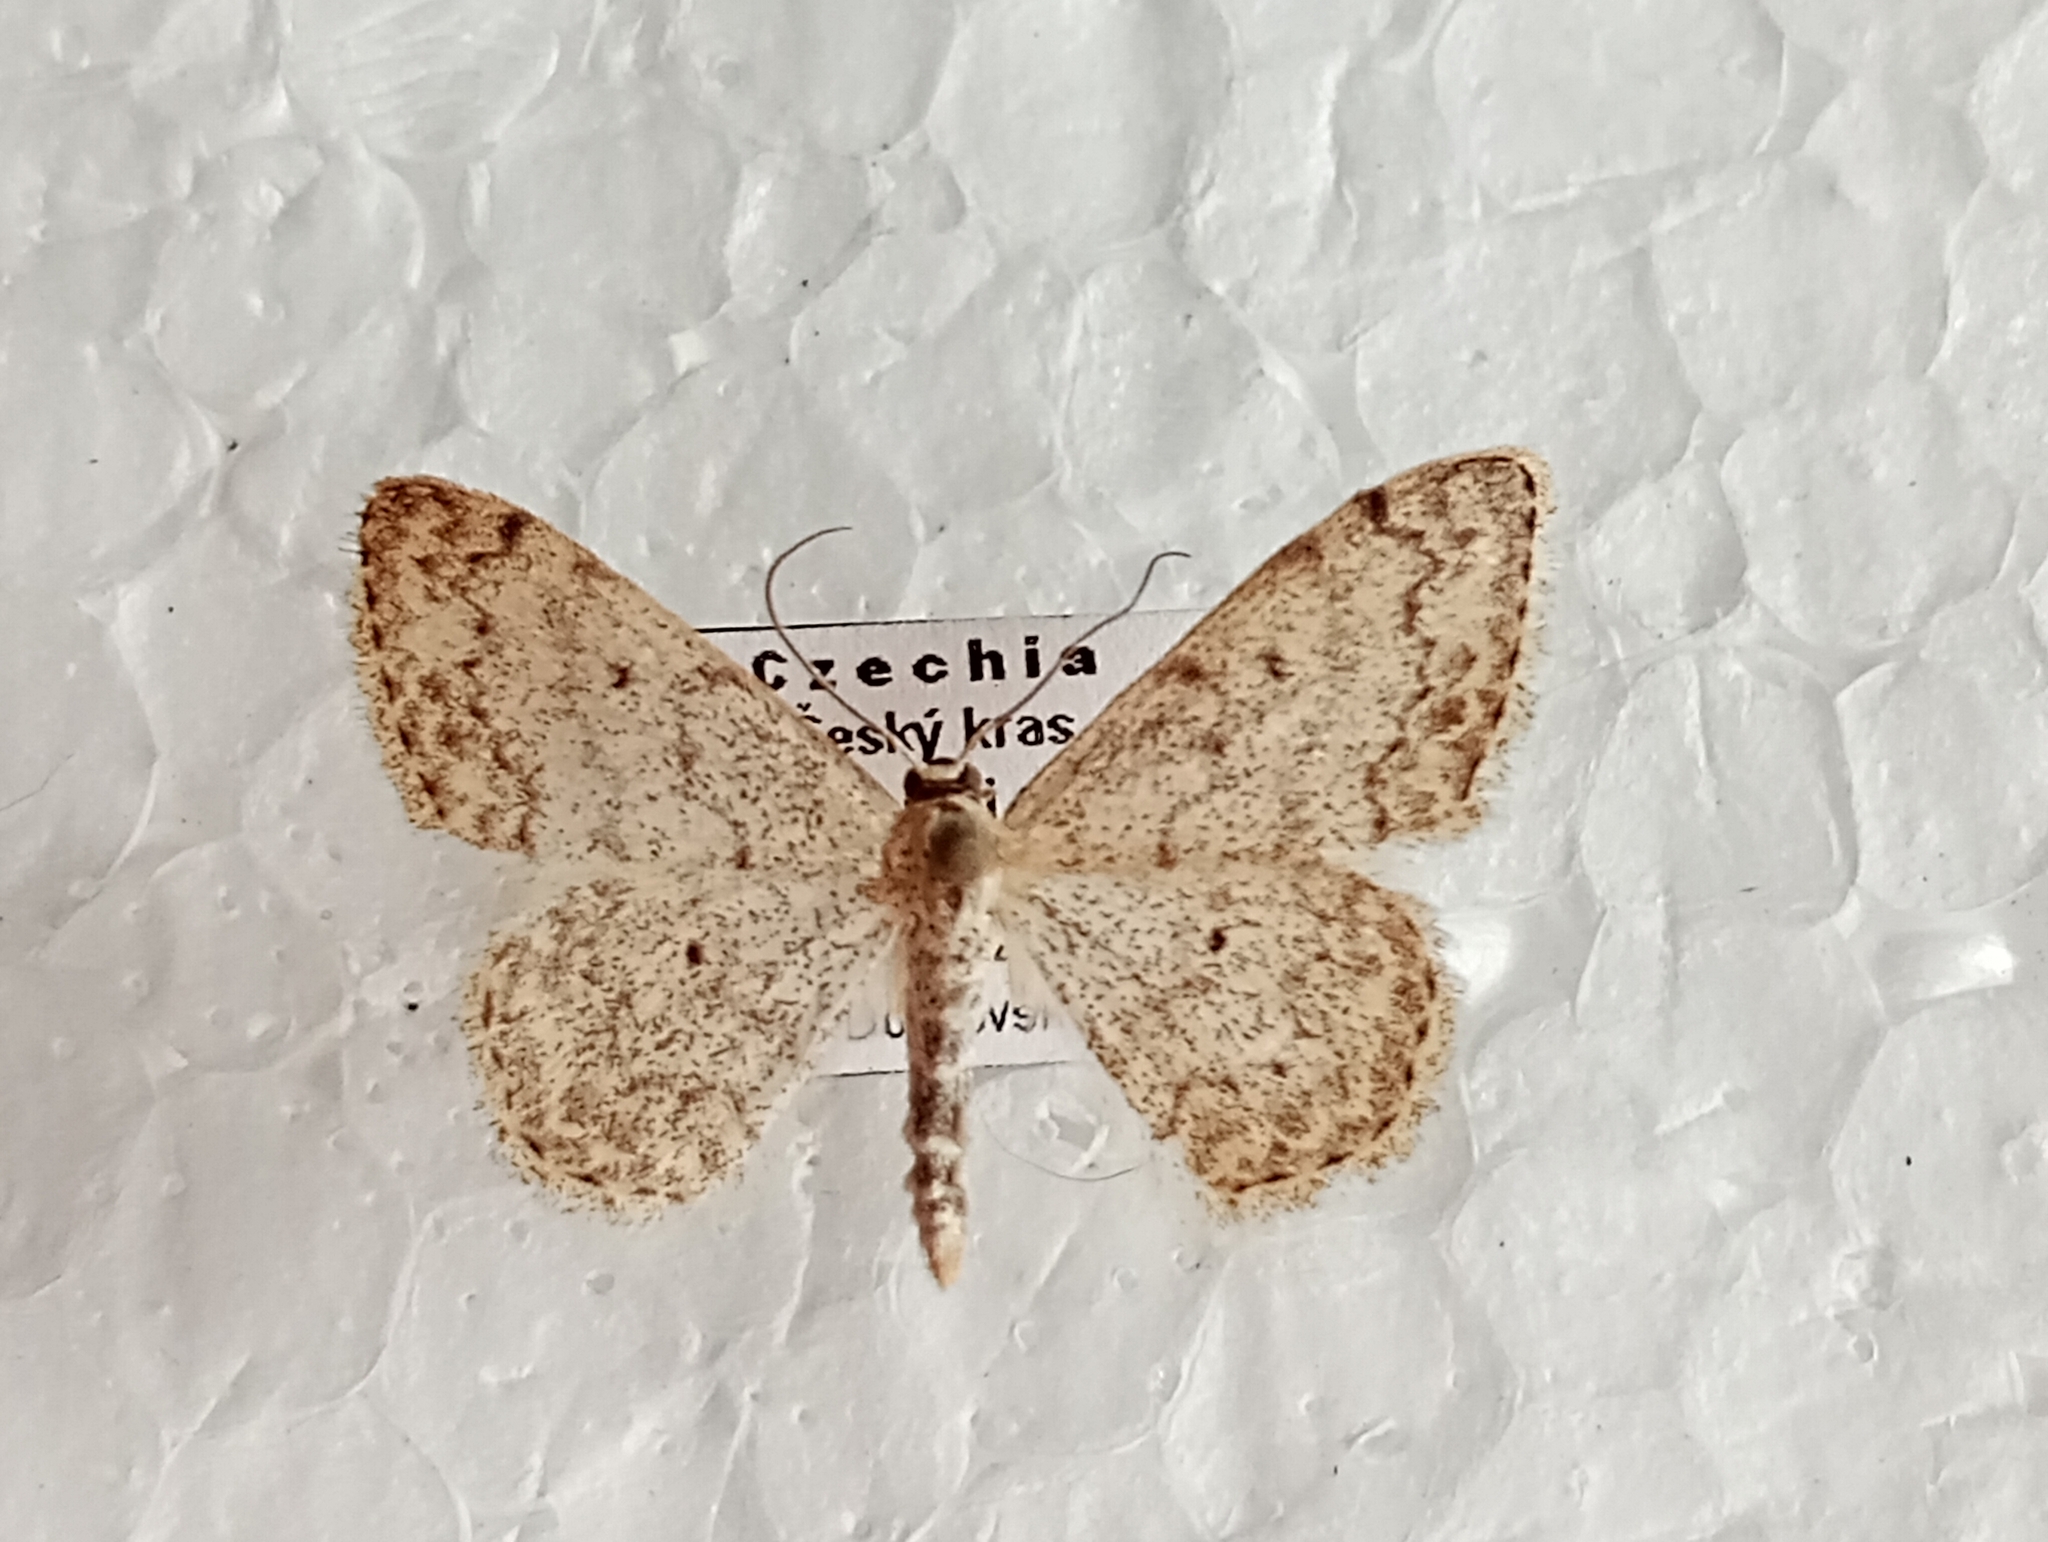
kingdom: Animalia
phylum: Arthropoda
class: Insecta
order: Lepidoptera
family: Geometridae
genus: Scopula
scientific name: Scopula marginepunctata
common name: Mullein wave
